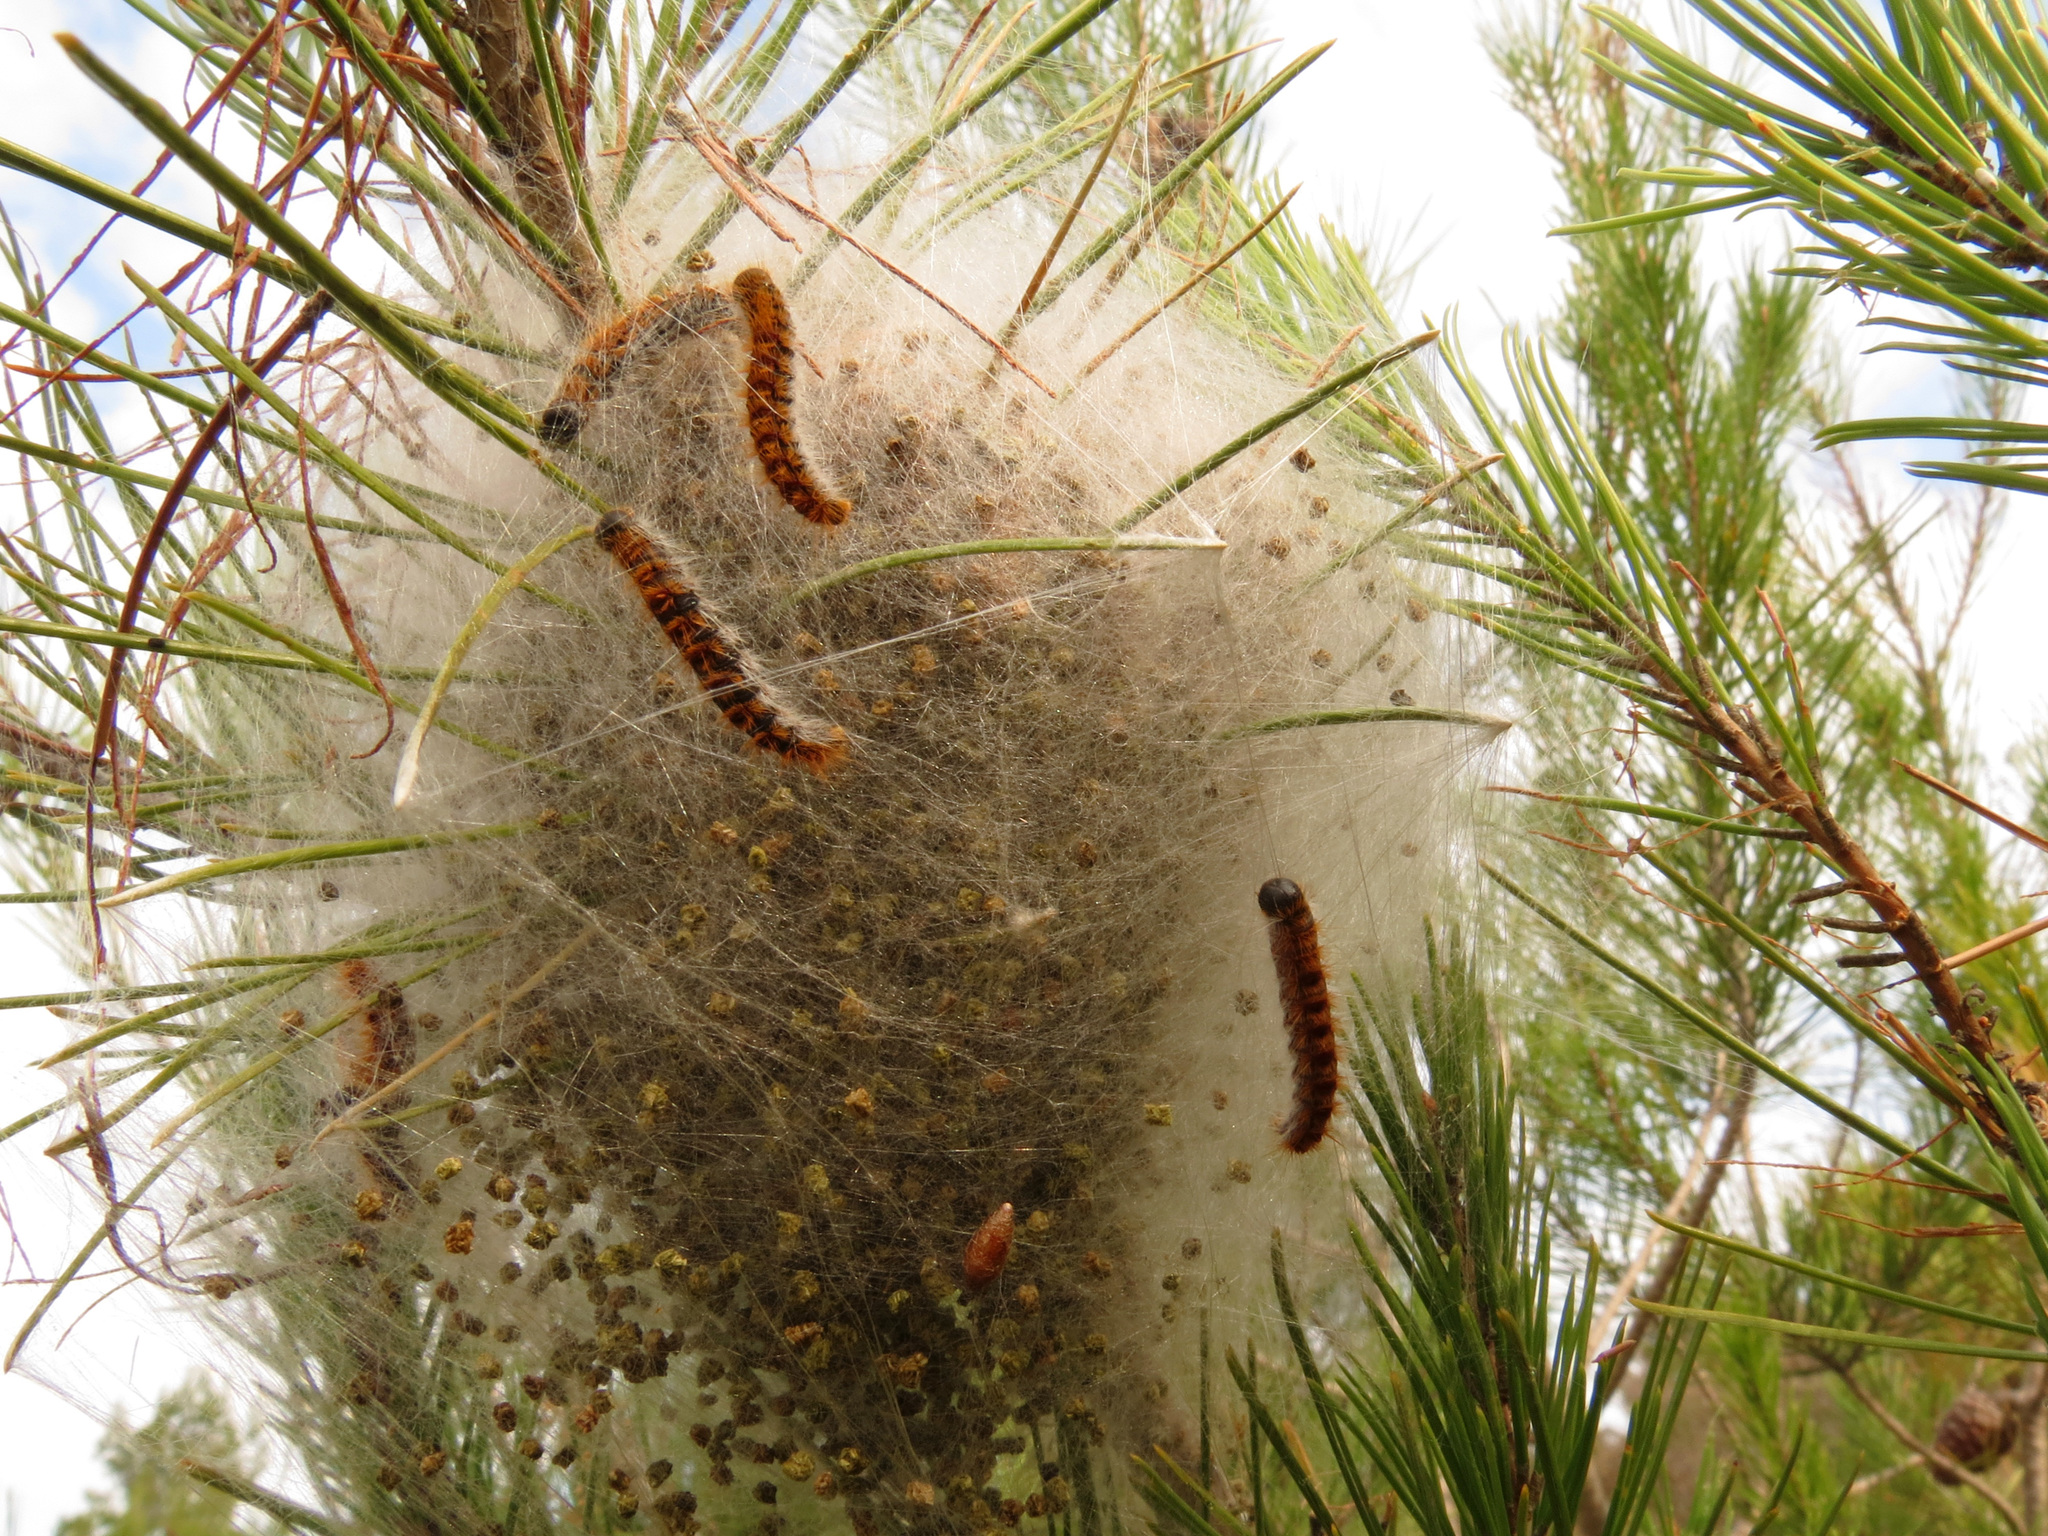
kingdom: Animalia
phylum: Arthropoda
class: Insecta
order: Lepidoptera
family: Notodontidae
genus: Thaumetopoea
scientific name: Thaumetopoea pityocampa
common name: Pine processionary
